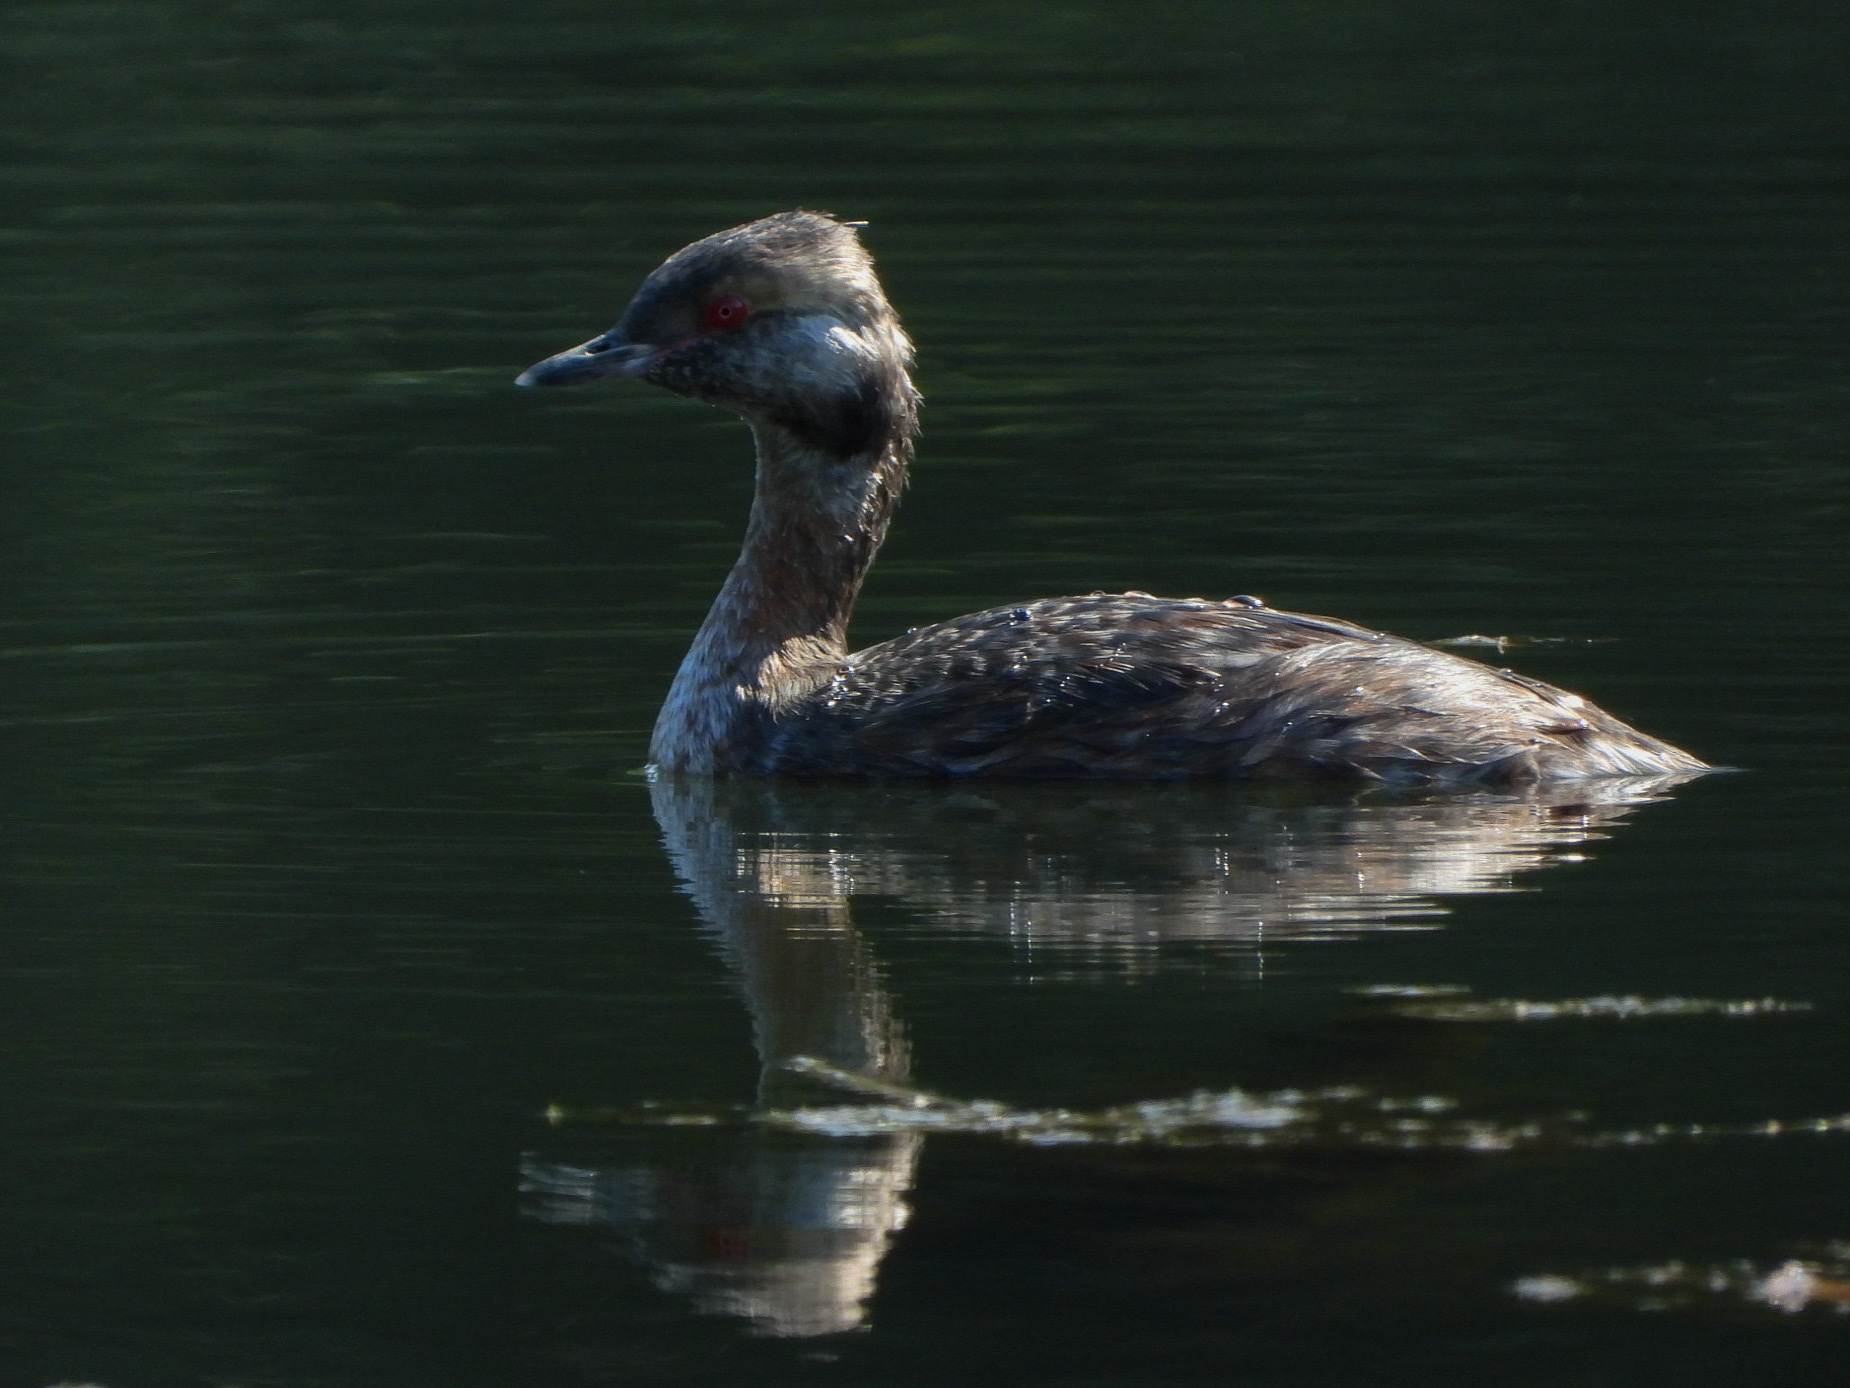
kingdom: Animalia
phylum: Chordata
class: Aves
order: Podicipediformes
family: Podicipedidae
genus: Podiceps
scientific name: Podiceps auritus
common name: Horned grebe
